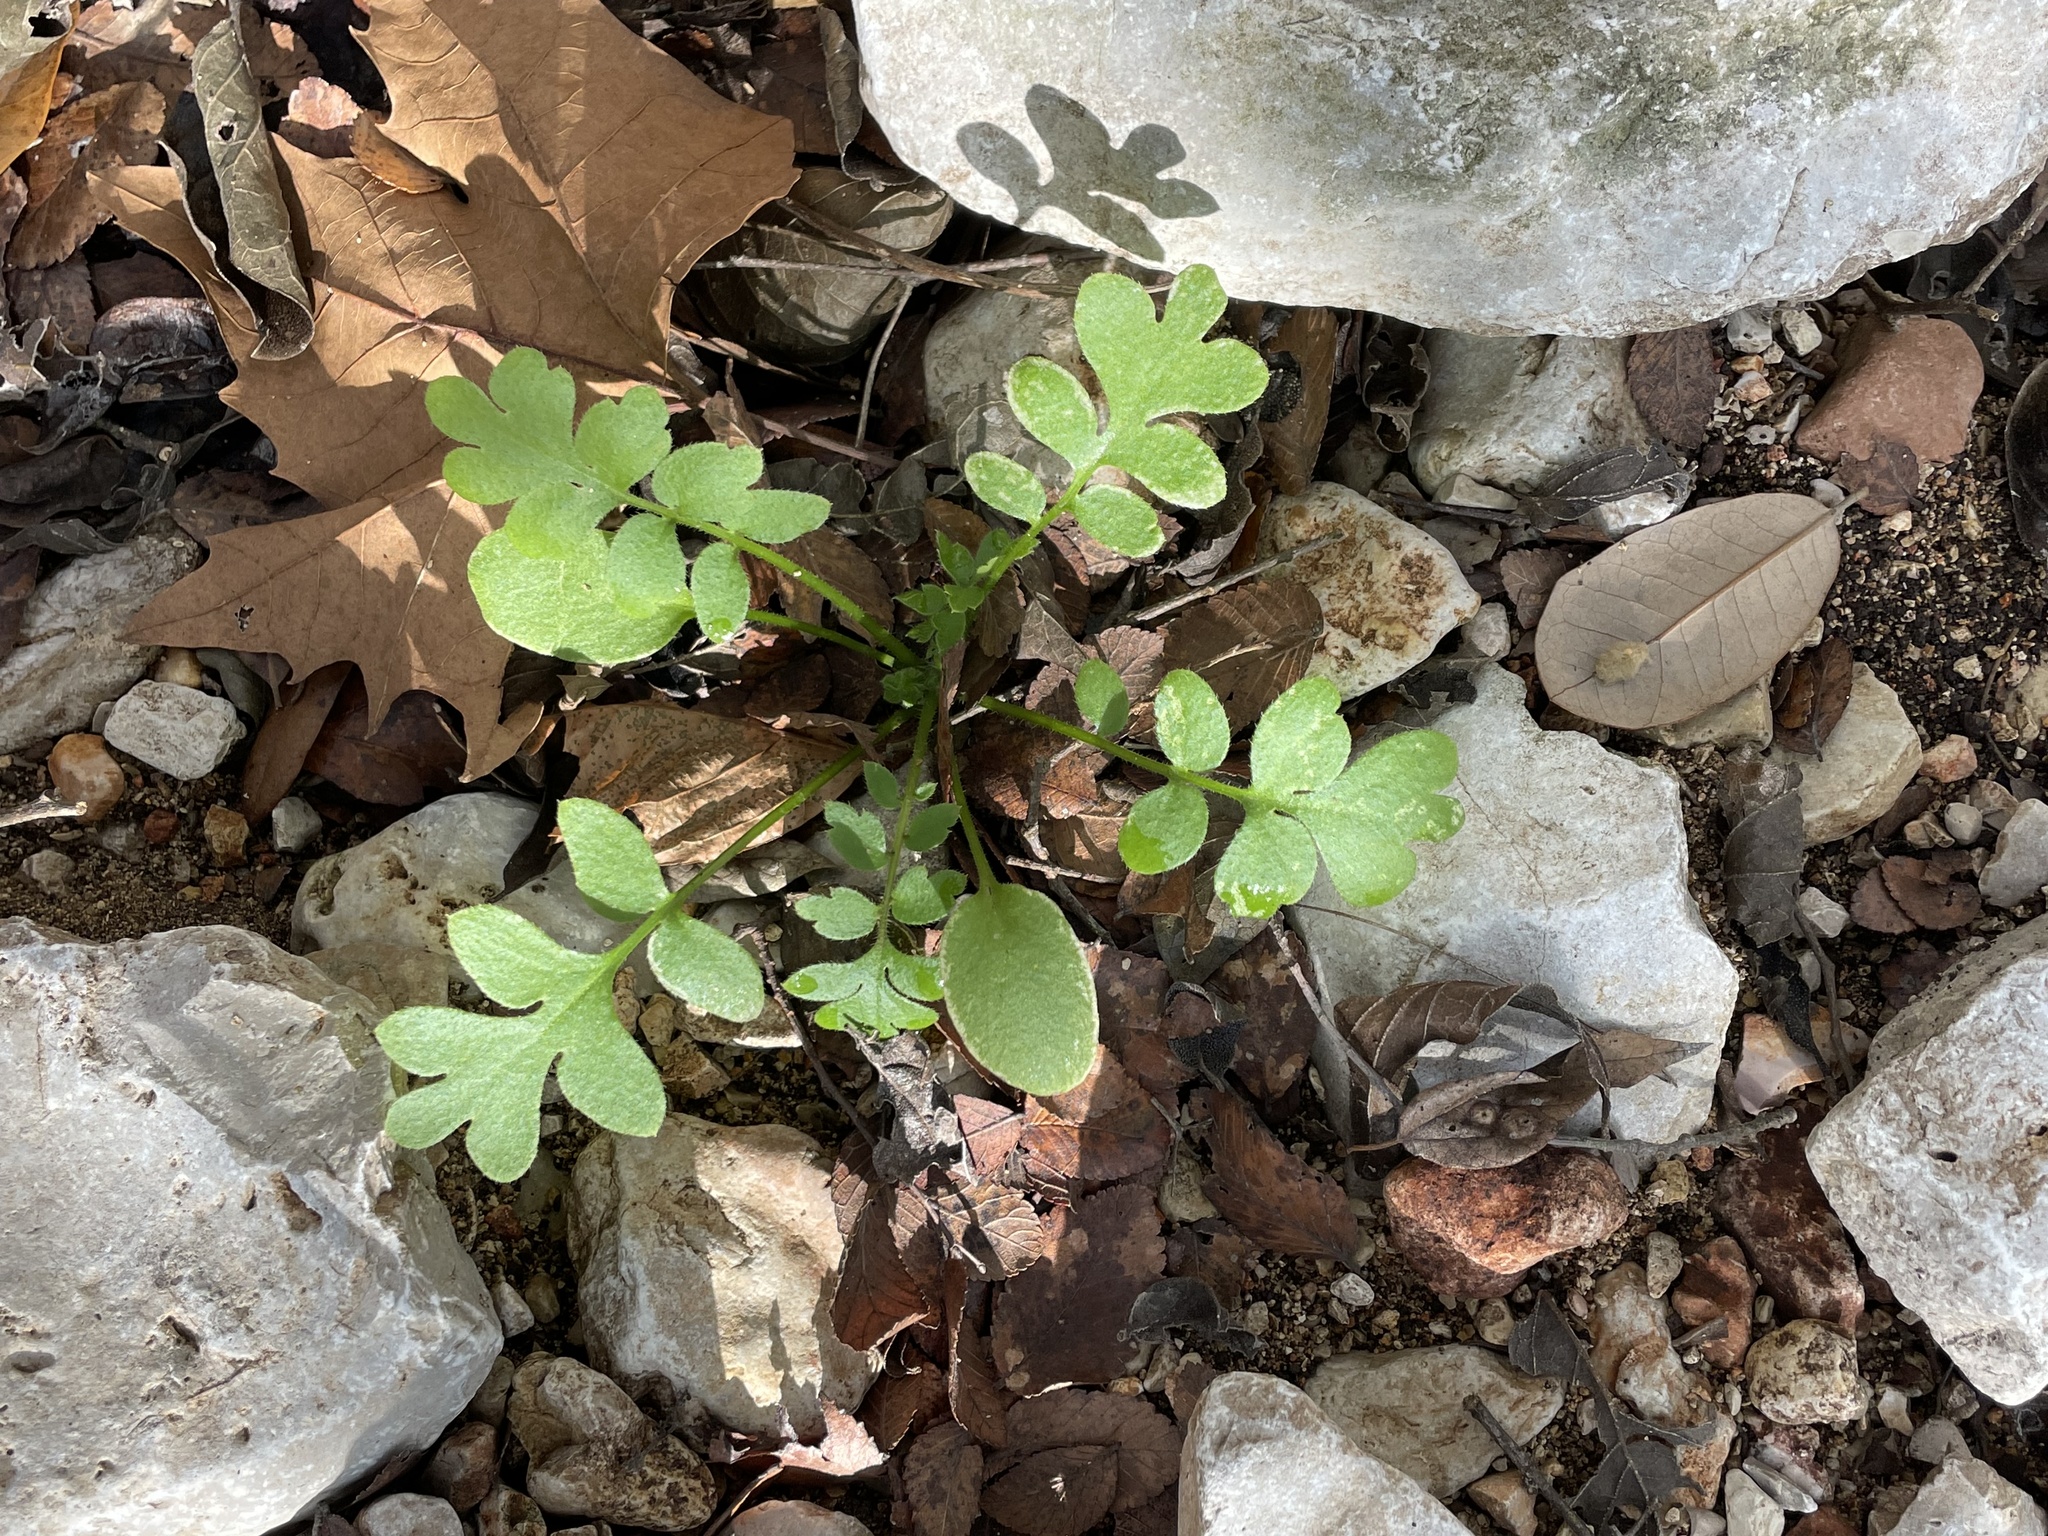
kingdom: Plantae
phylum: Tracheophyta
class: Magnoliopsida
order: Boraginales
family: Hydrophyllaceae
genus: Nemophila
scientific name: Nemophila phacelioides
